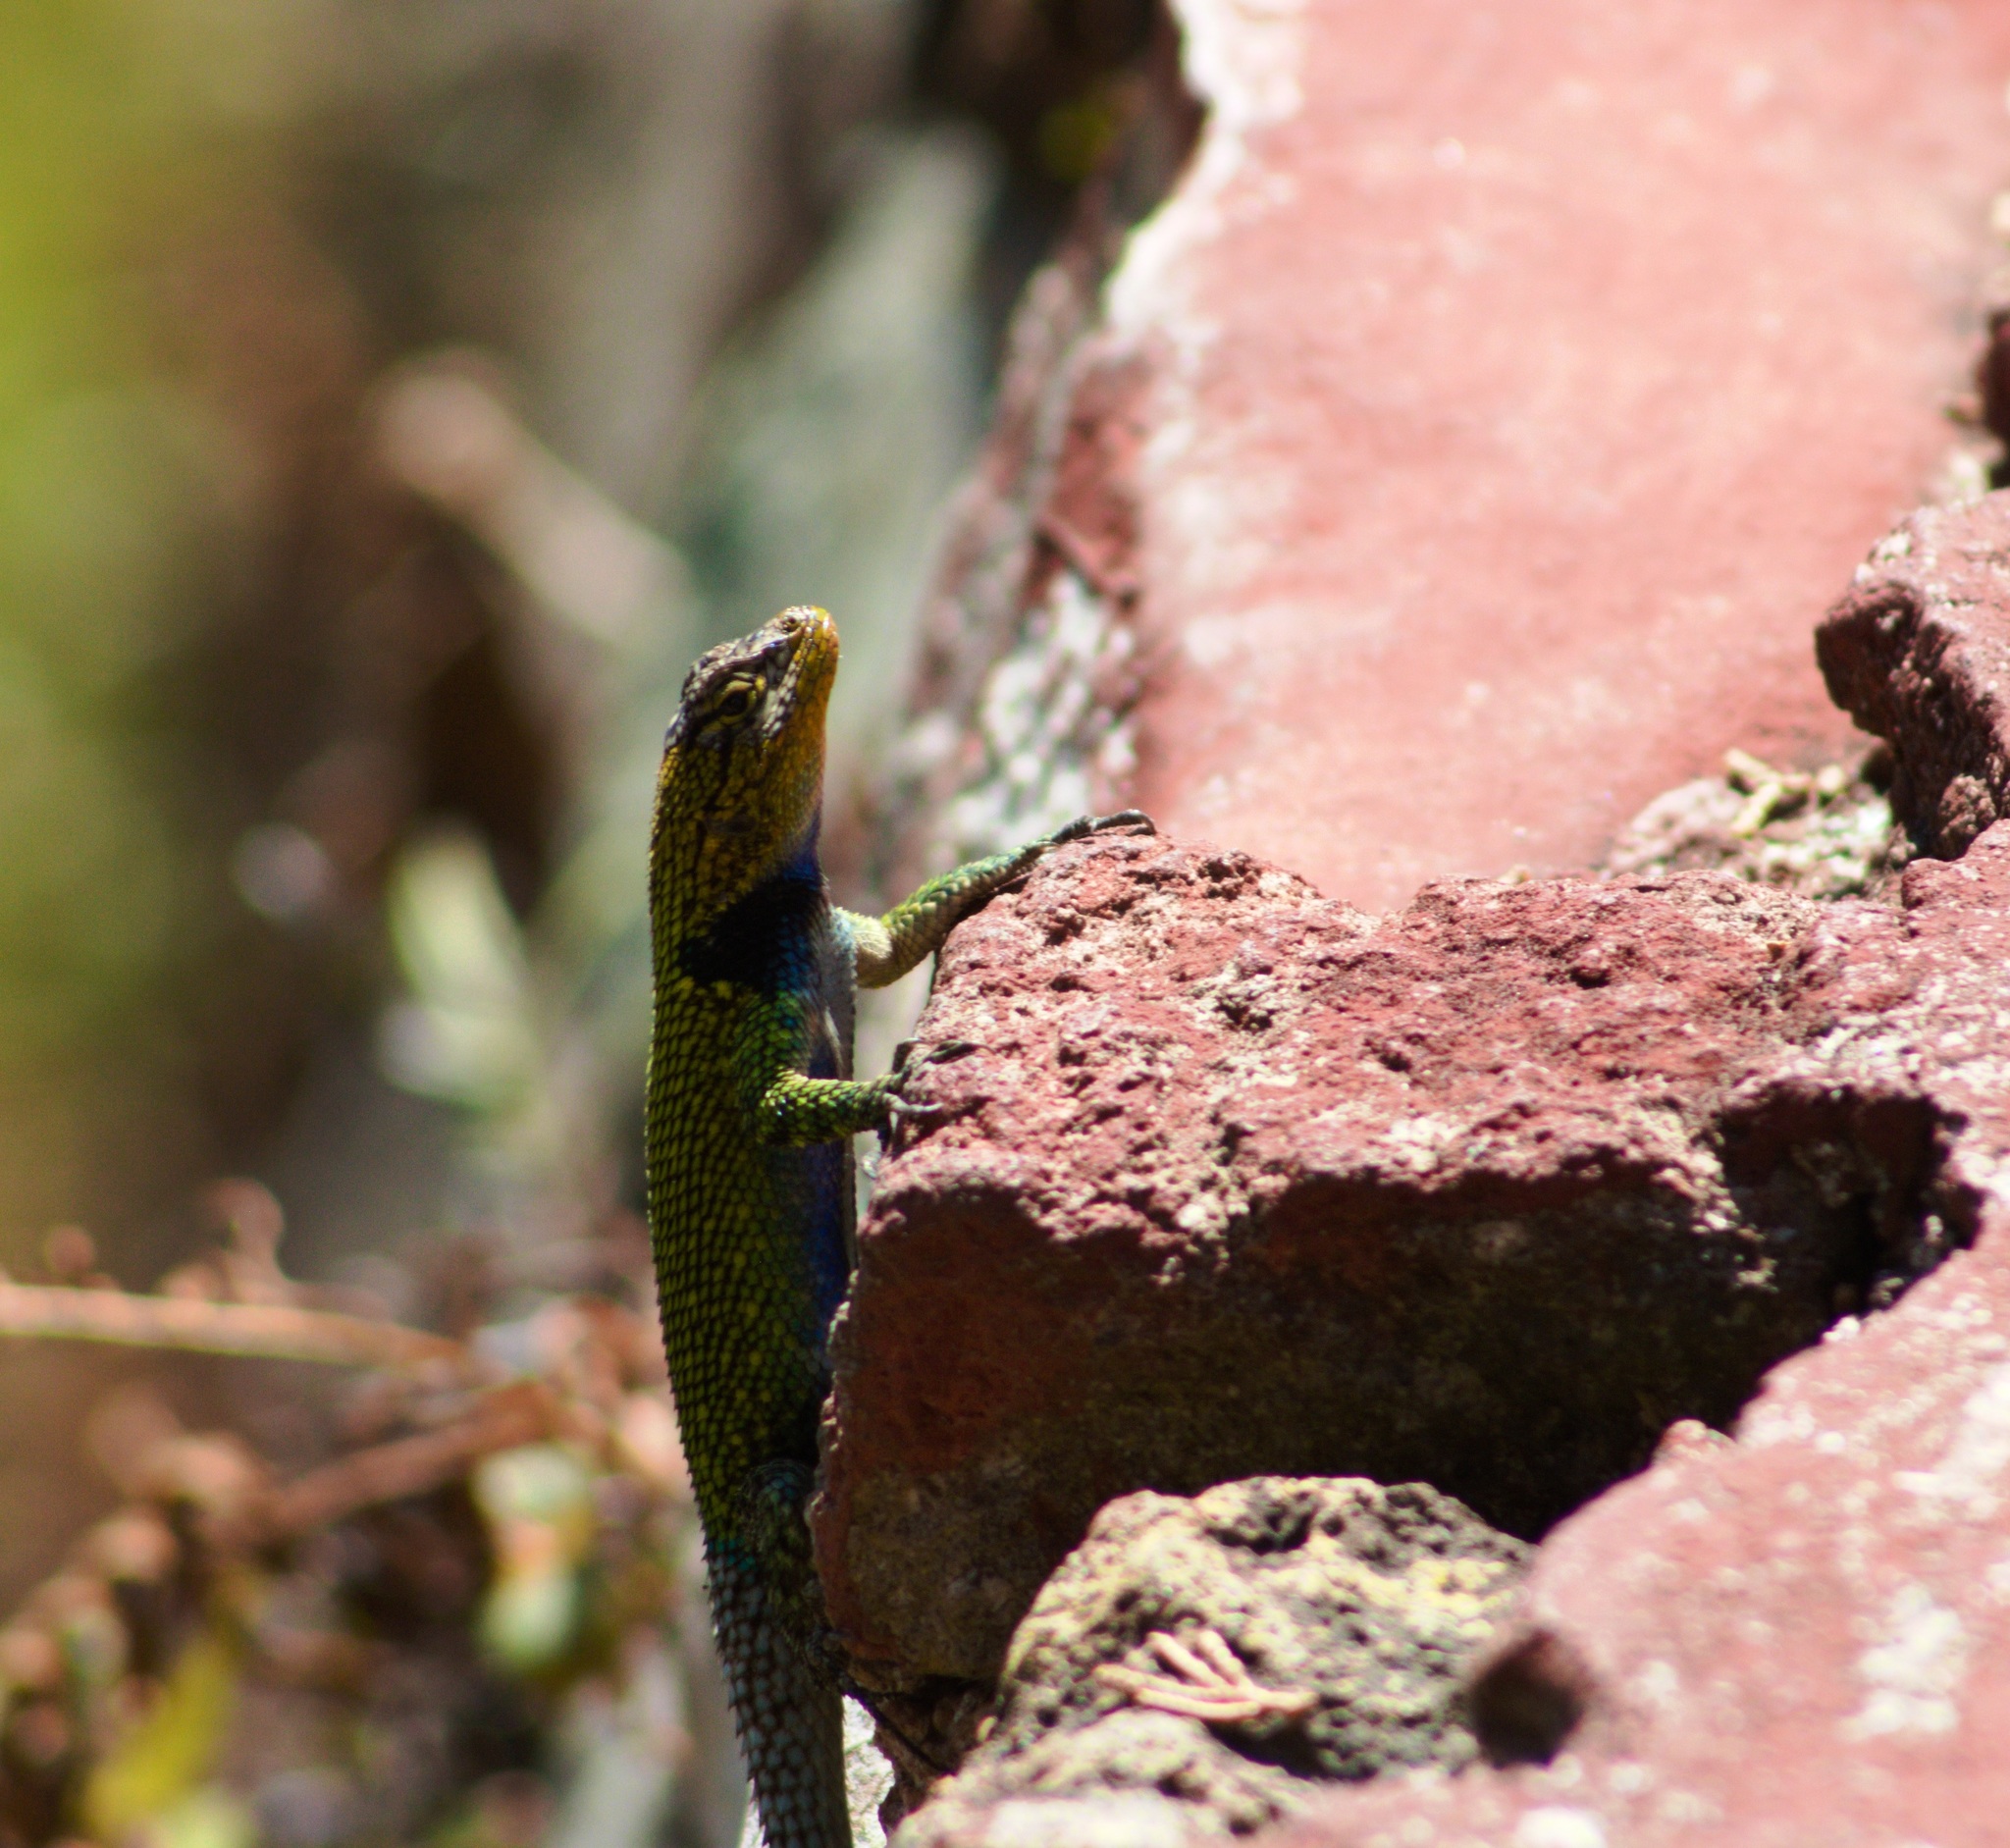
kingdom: Animalia
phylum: Chordata
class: Squamata
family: Phrynosomatidae
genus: Sceloporus
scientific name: Sceloporus taeniocnemis
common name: Guatemalan emerald spiny lizard
